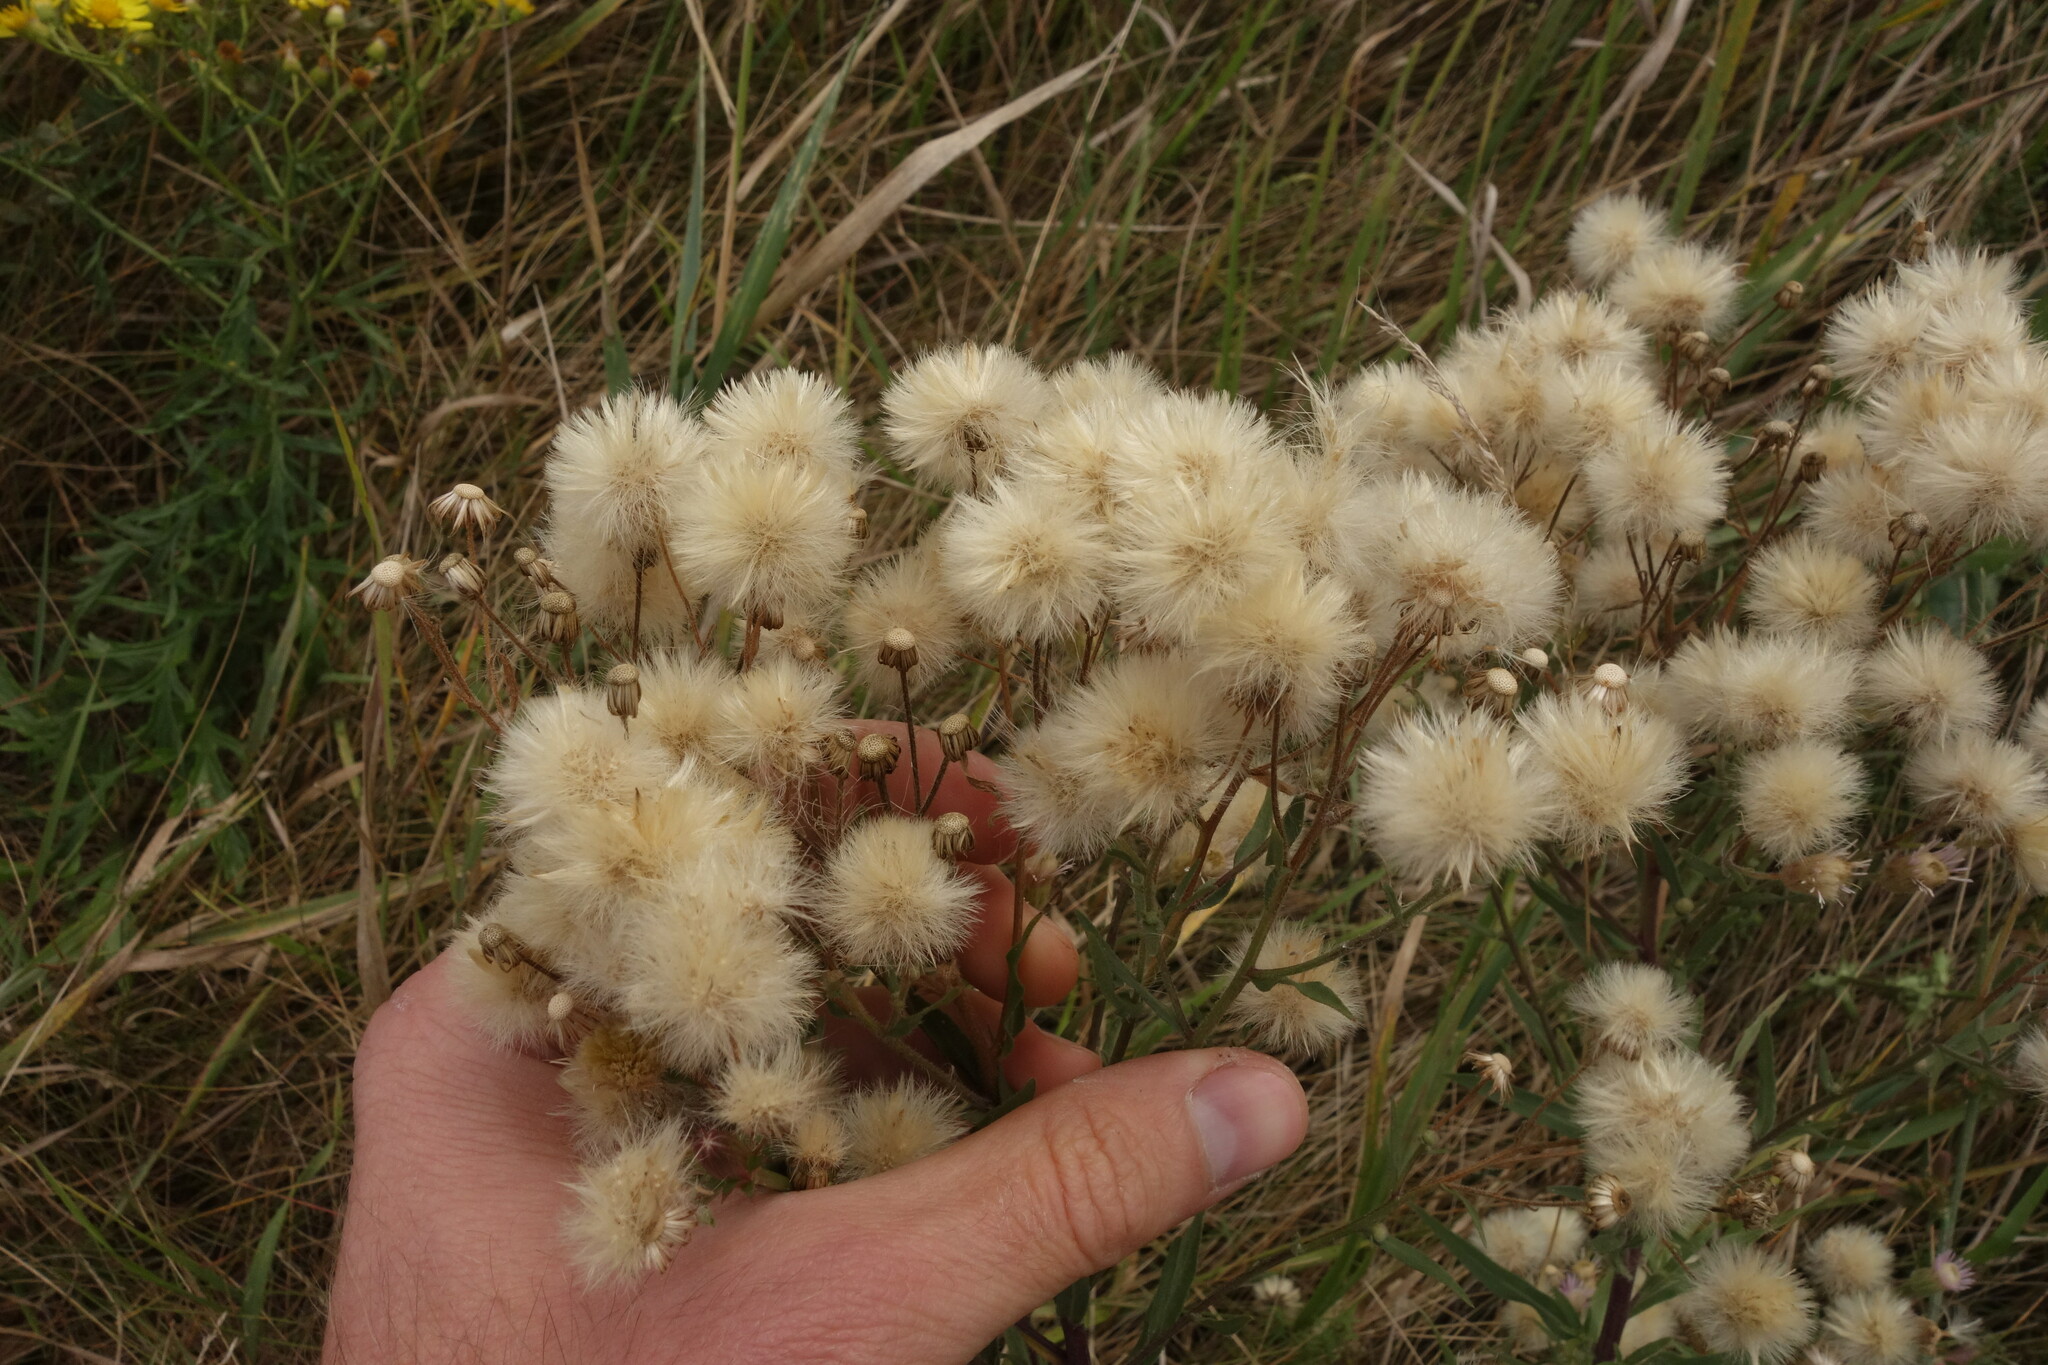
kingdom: Plantae
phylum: Tracheophyta
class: Magnoliopsida
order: Asterales
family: Asteraceae
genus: Erigeron
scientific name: Erigeron acris
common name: Blue fleabane
